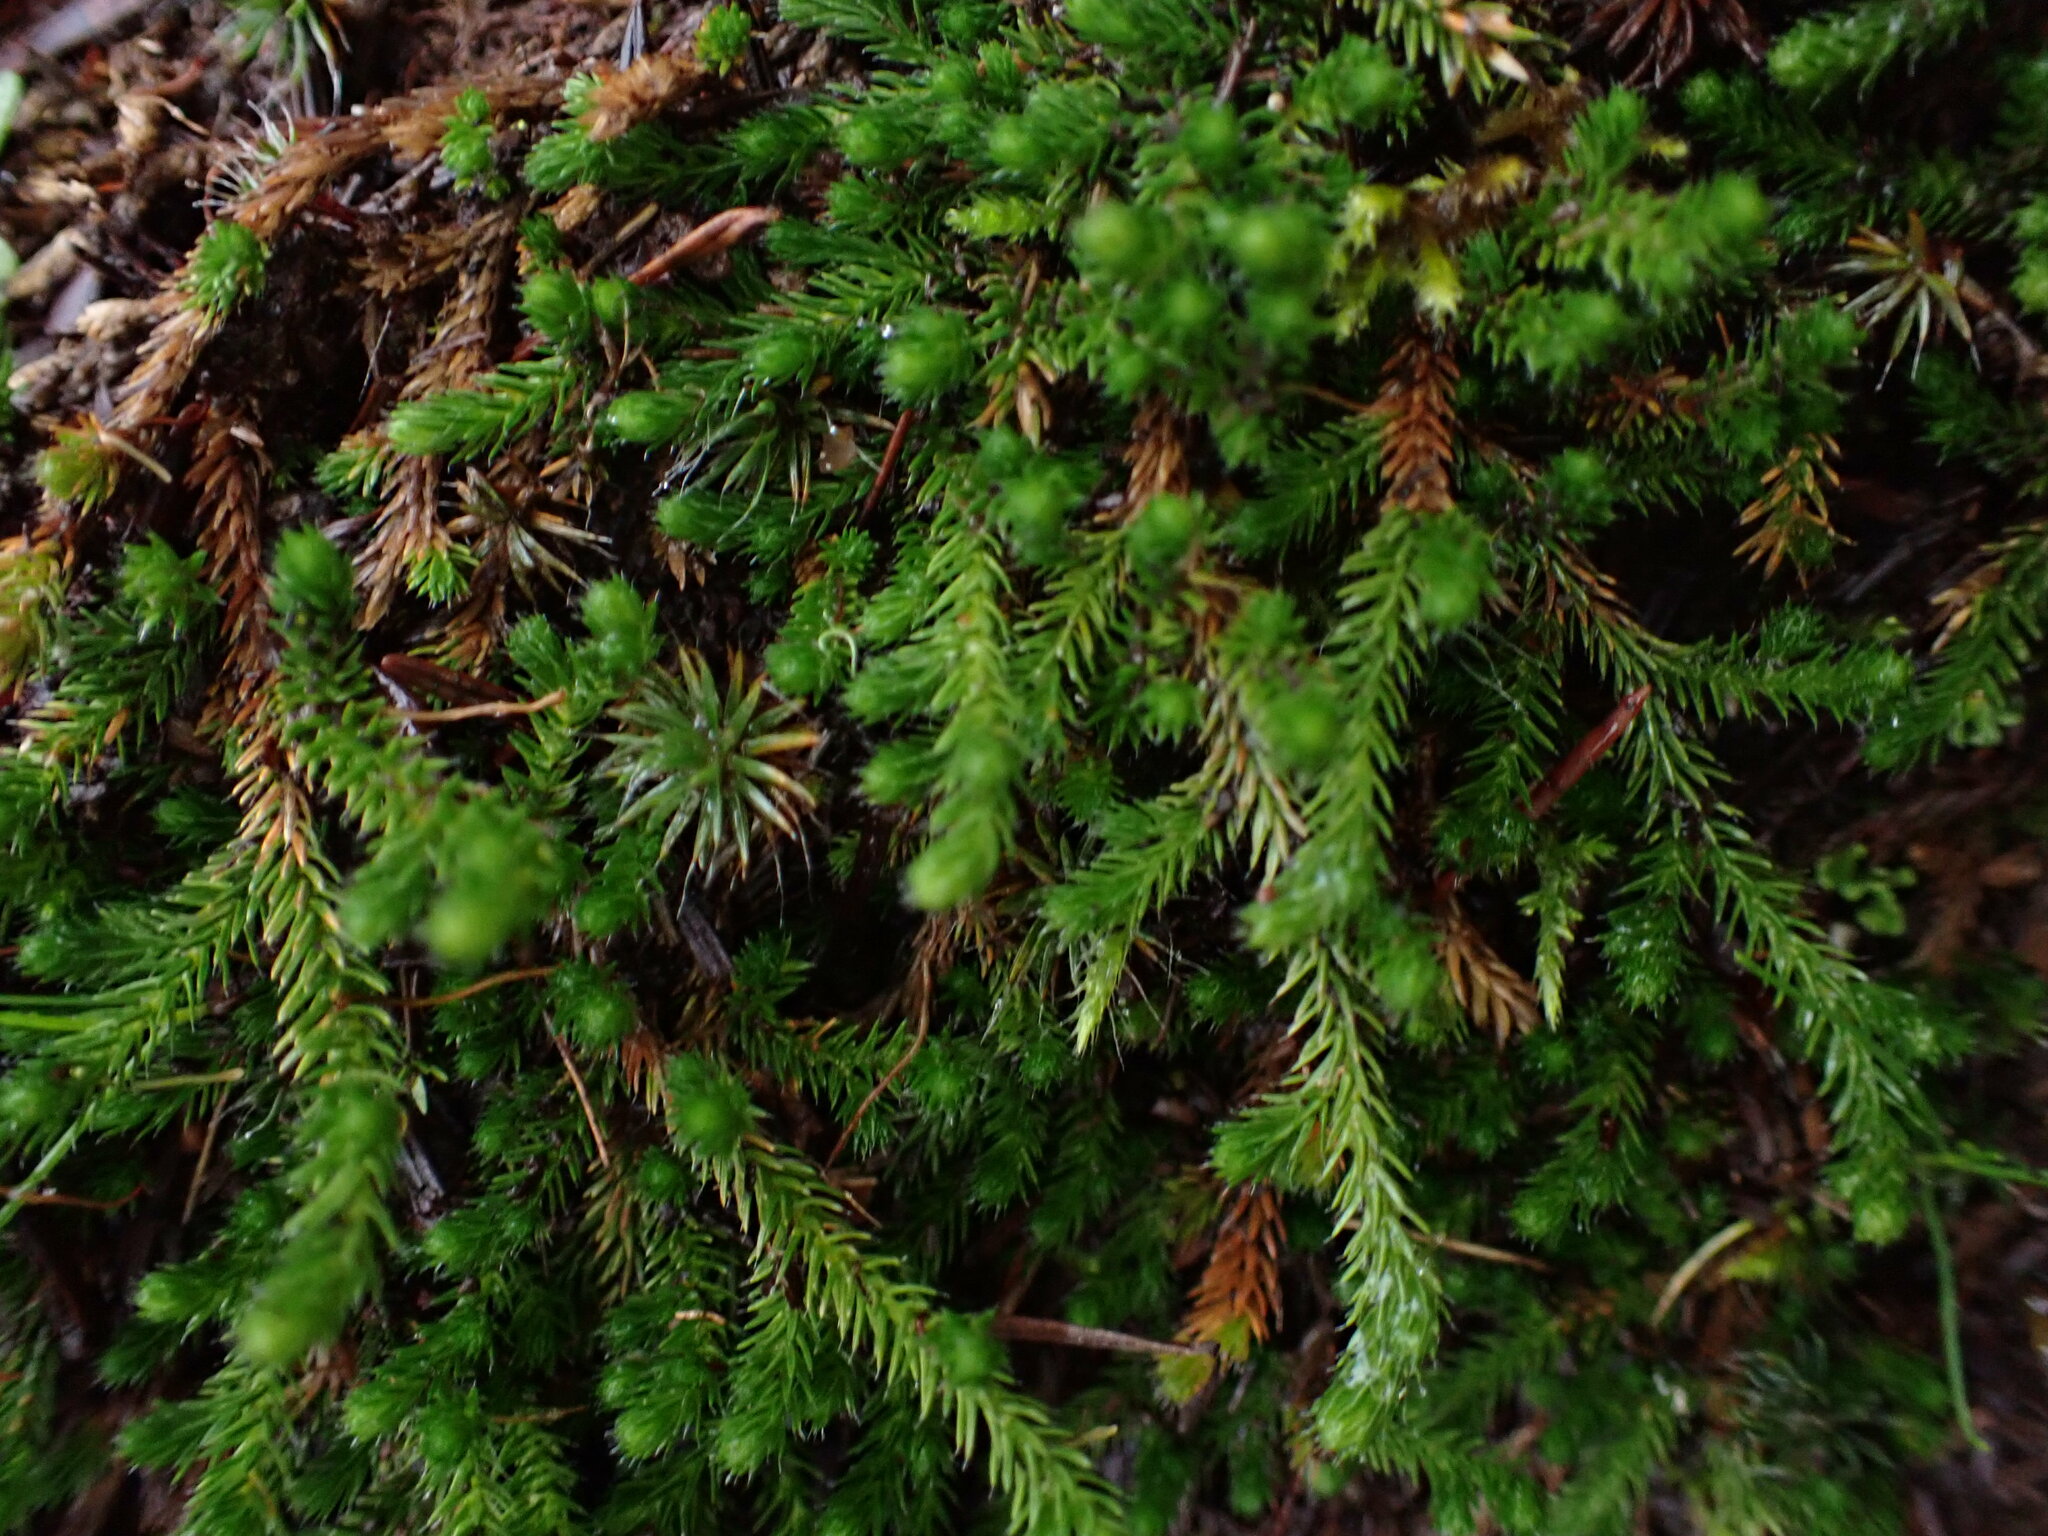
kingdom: Plantae
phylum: Tracheophyta
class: Lycopodiopsida
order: Selaginellales
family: Selaginellaceae
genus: Selaginella
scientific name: Selaginella wallacei
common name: Wallace's selaginella
